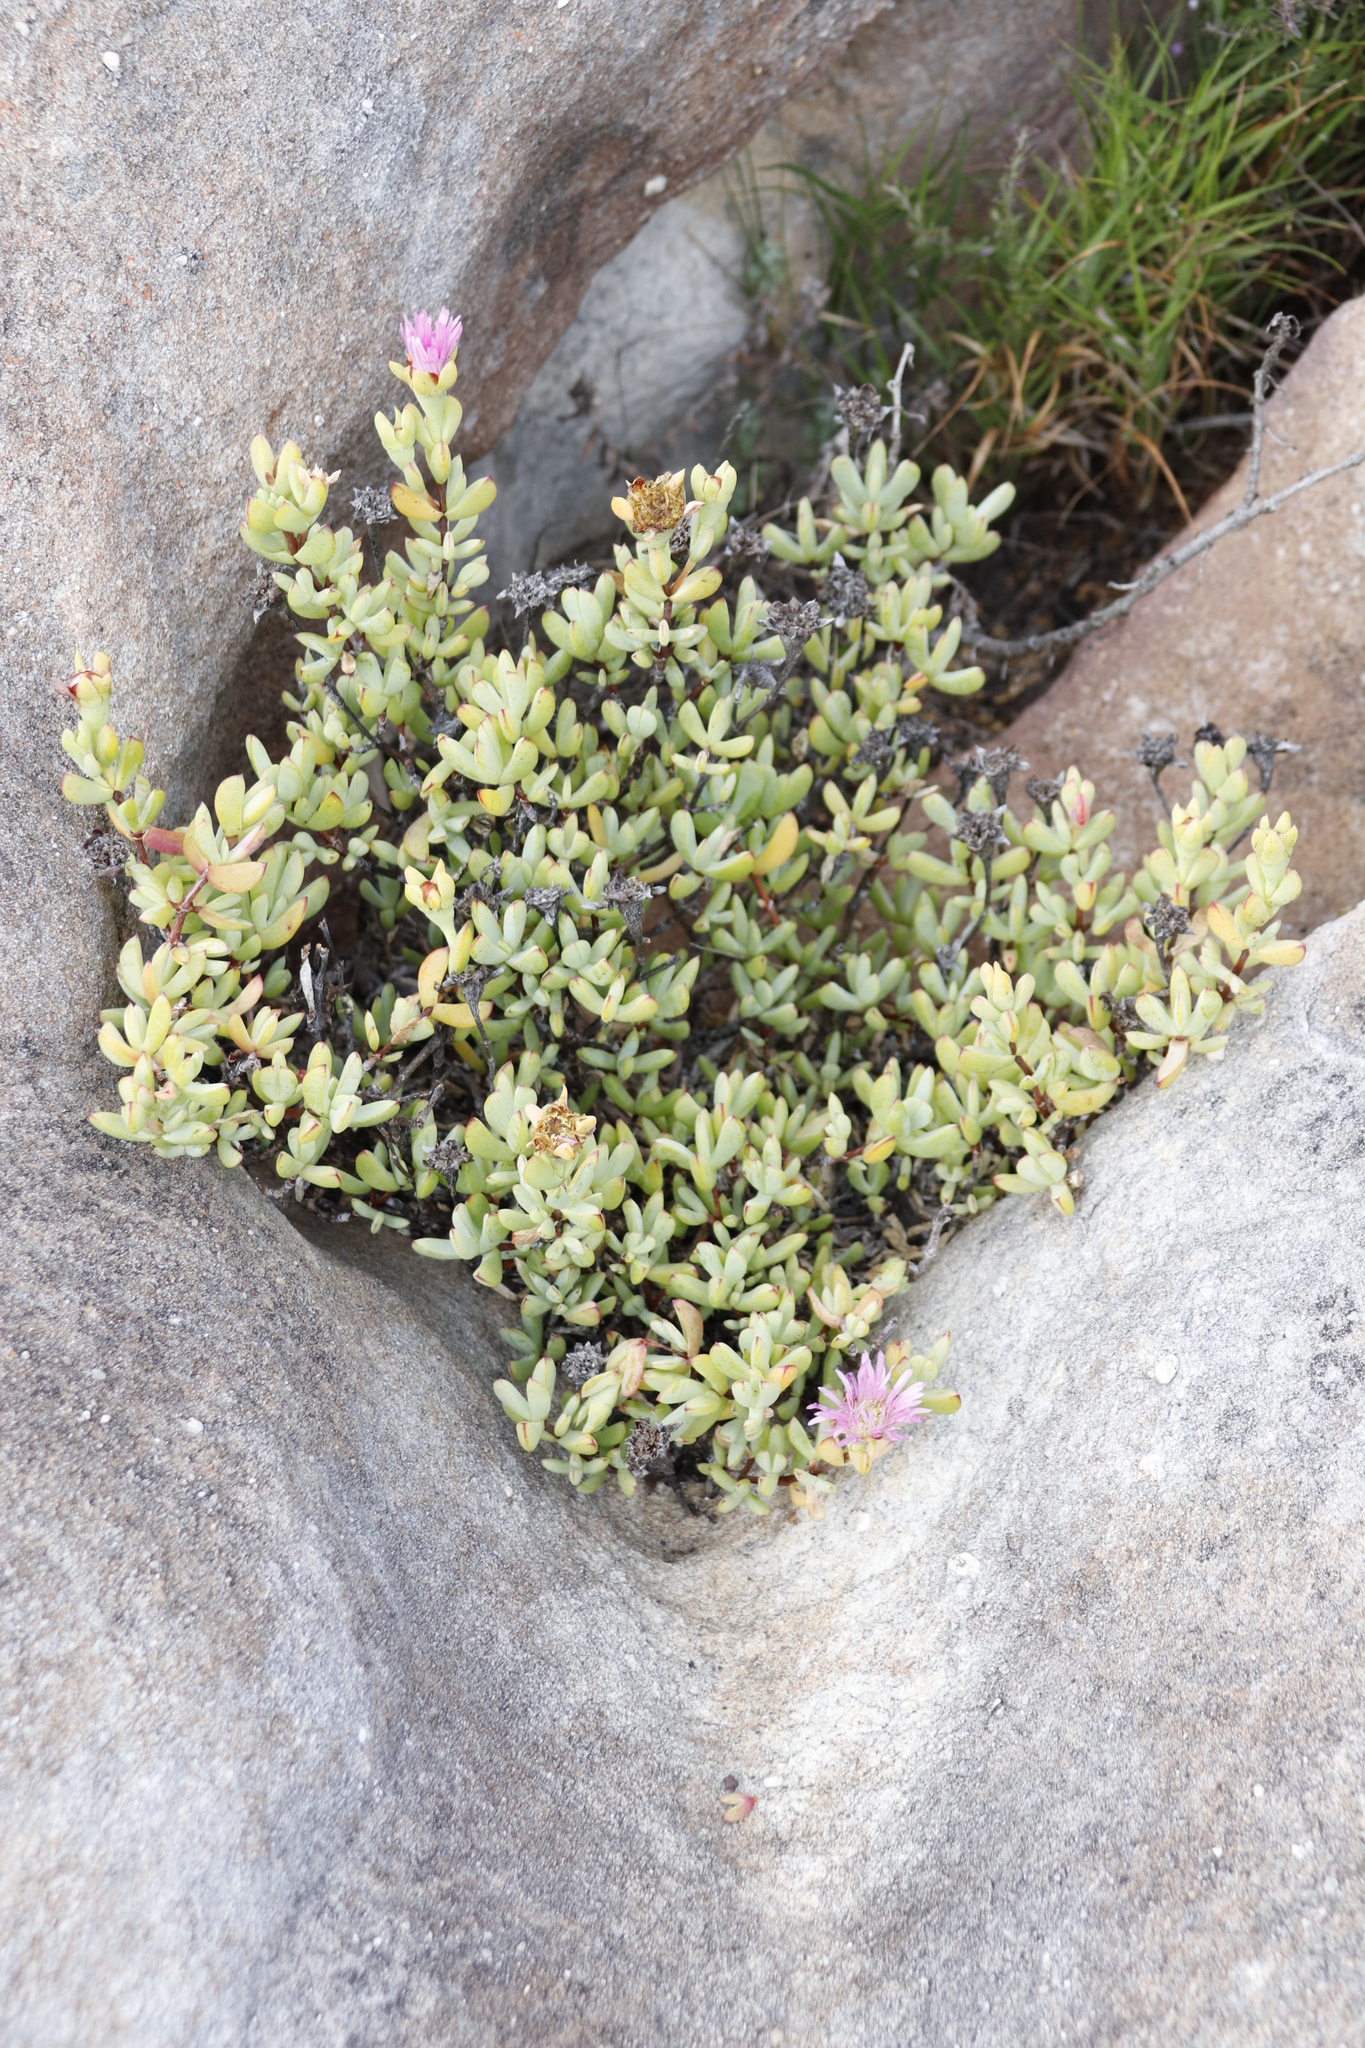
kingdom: Plantae
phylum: Tracheophyta
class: Magnoliopsida
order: Caryophyllales
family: Aizoaceae
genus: Oscularia
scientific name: Oscularia falciformis
